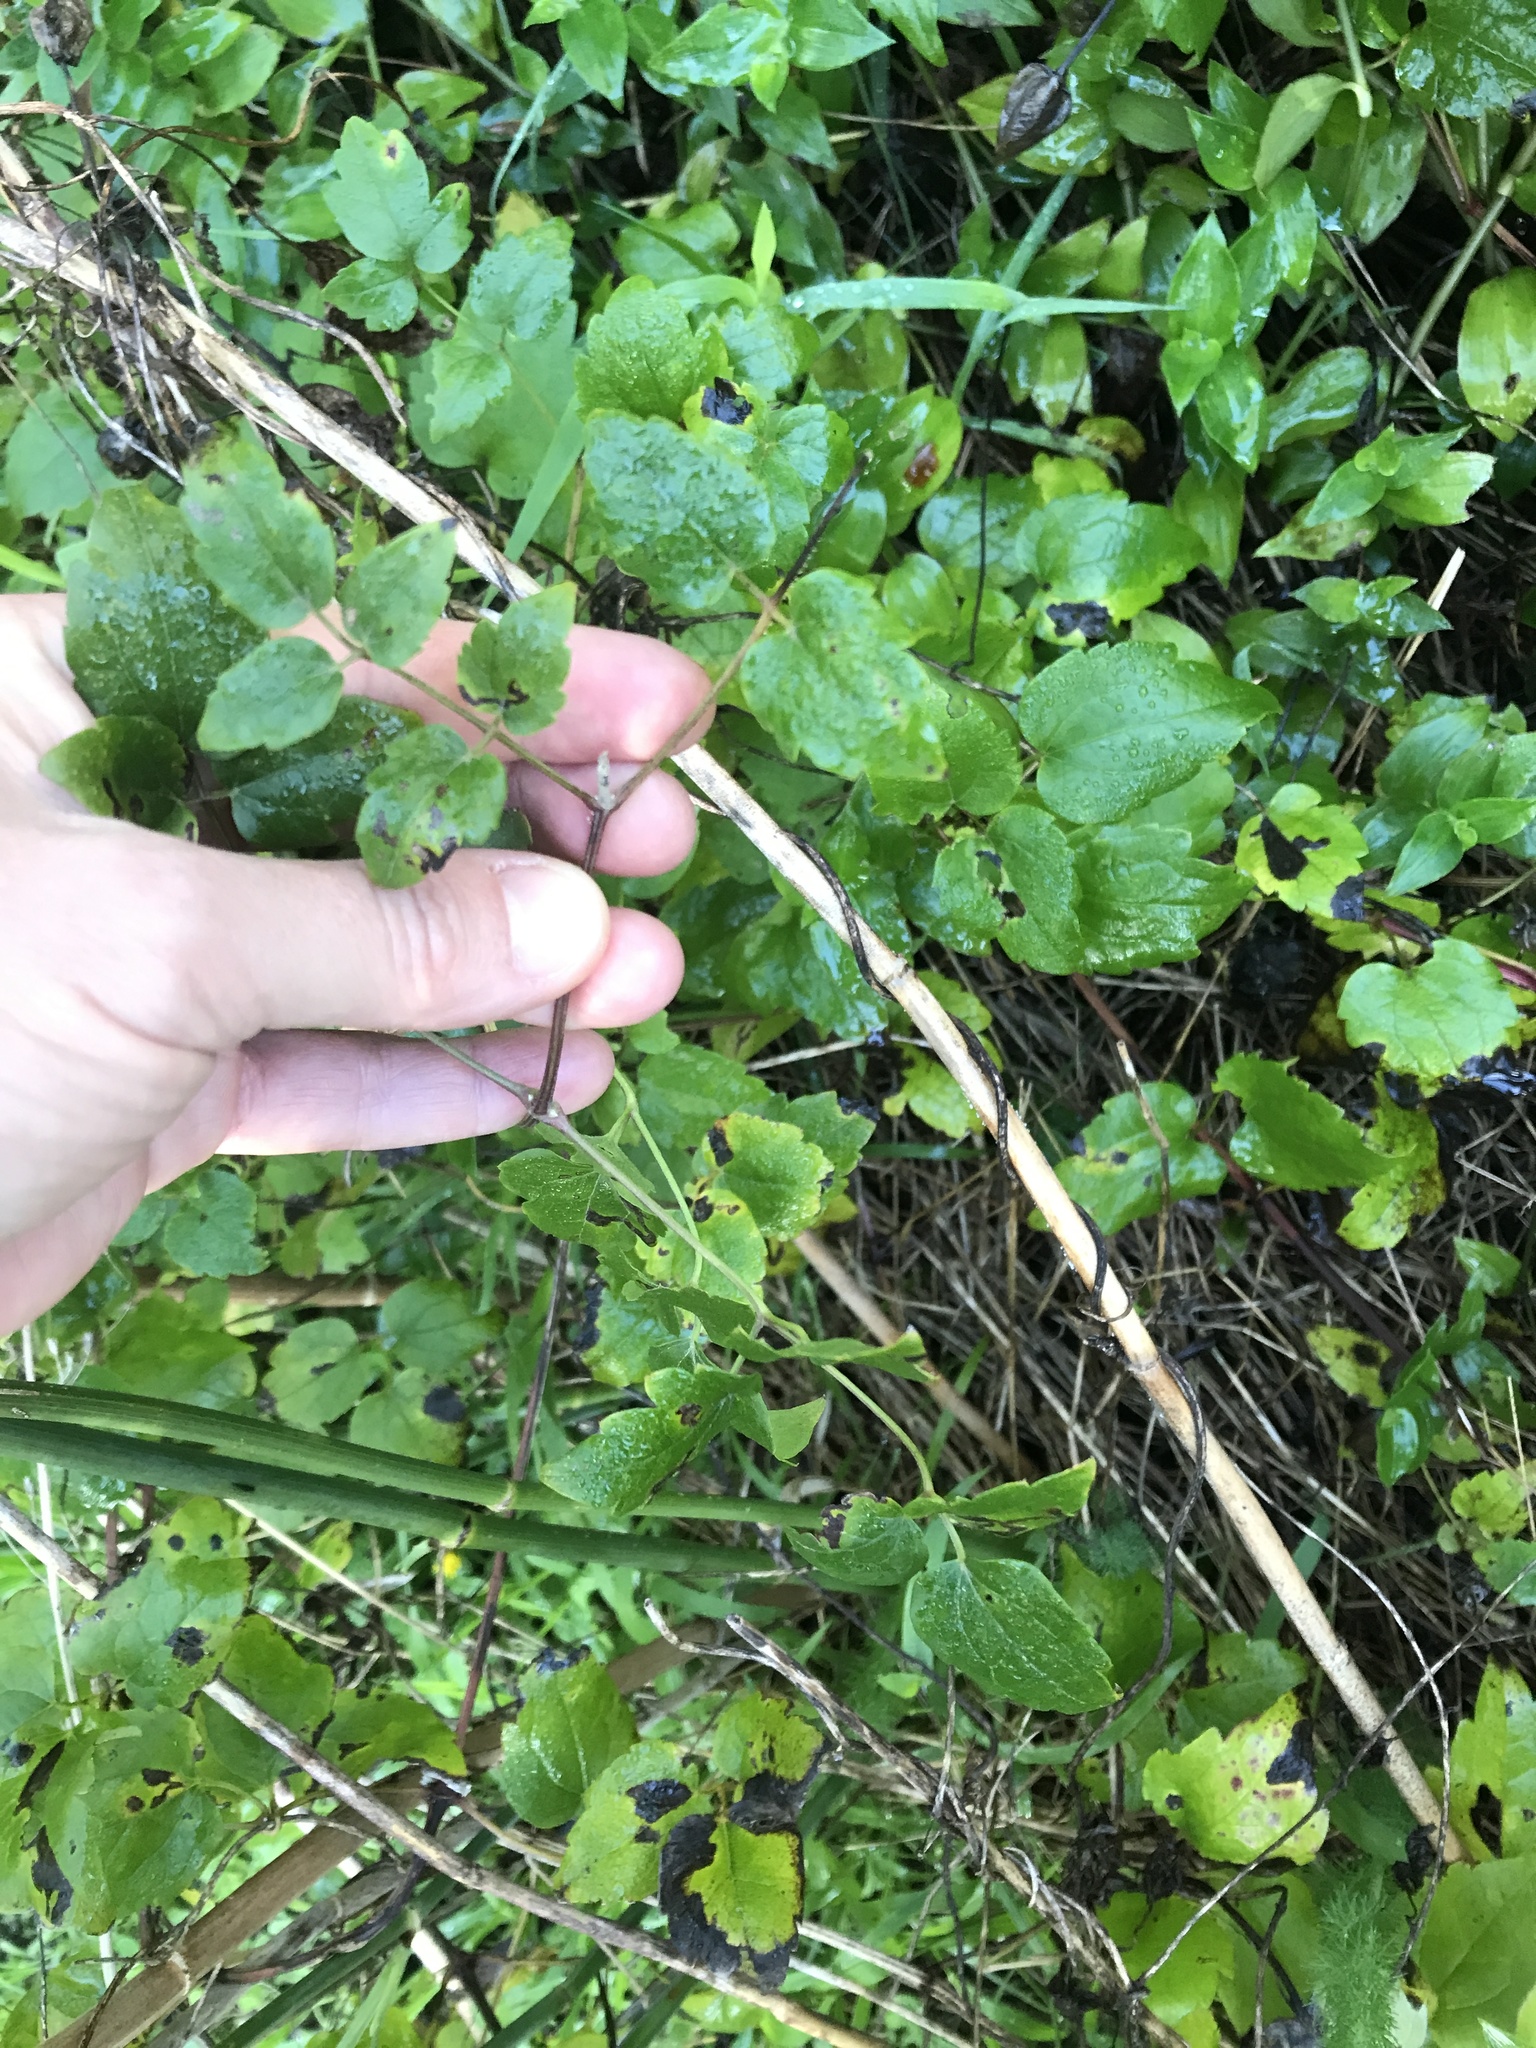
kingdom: Plantae
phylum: Tracheophyta
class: Magnoliopsida
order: Ranunculales
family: Ranunculaceae
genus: Clematis
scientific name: Clematis vitalba
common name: Evergreen clematis
